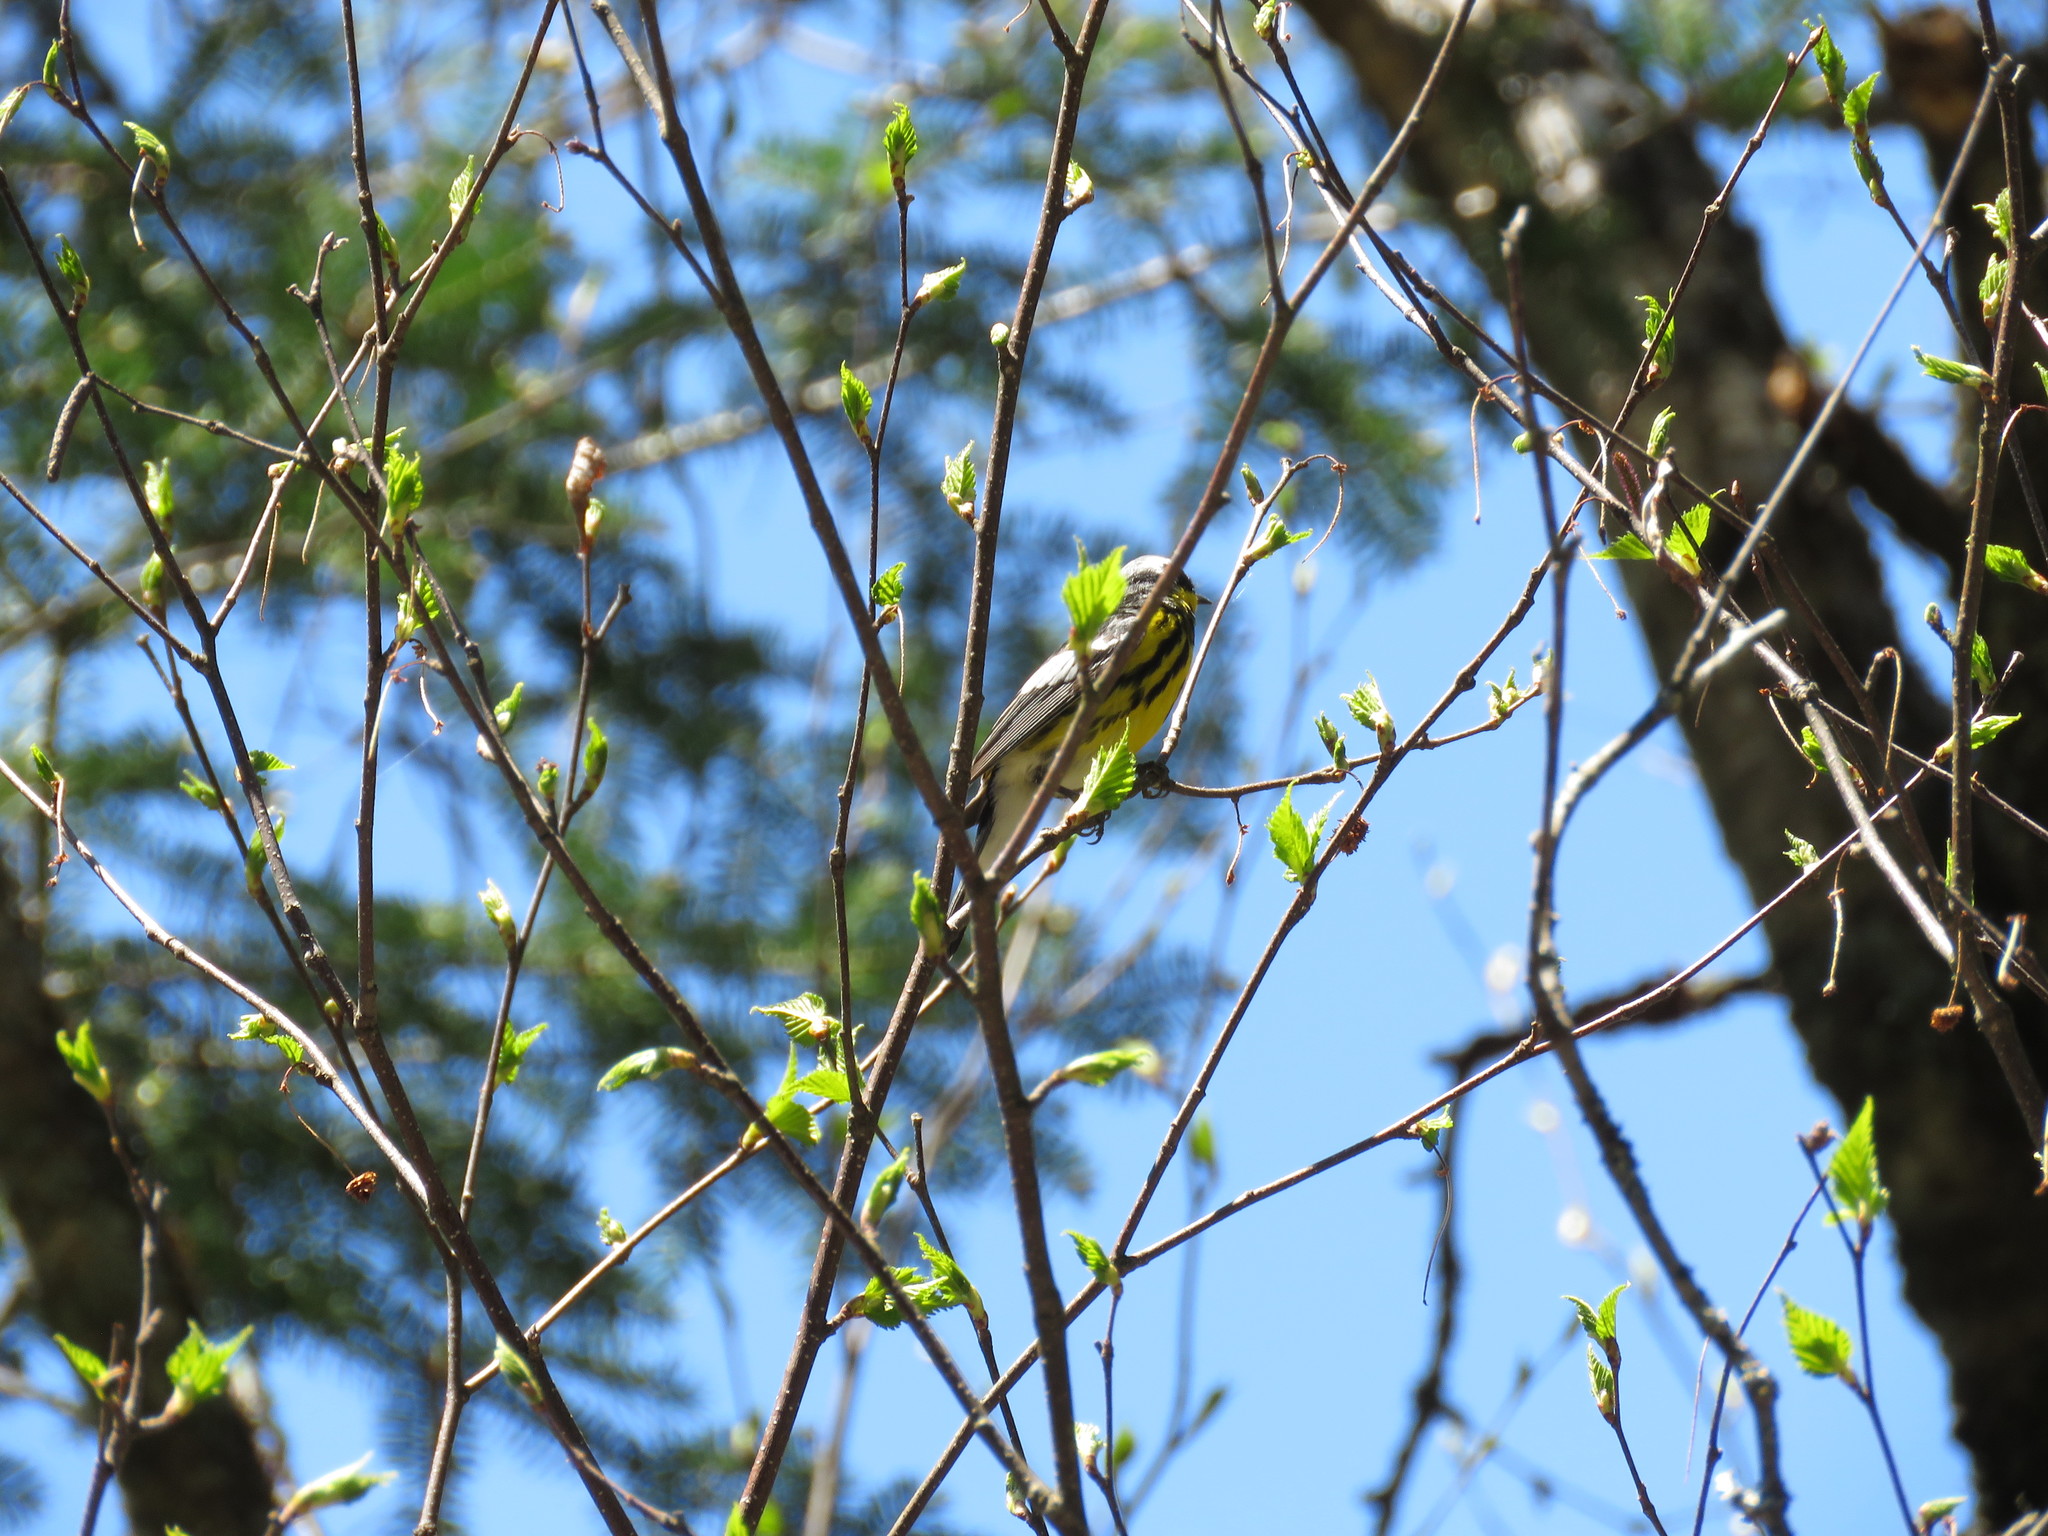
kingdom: Animalia
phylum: Chordata
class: Aves
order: Passeriformes
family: Parulidae
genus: Setophaga
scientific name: Setophaga magnolia
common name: Magnolia warbler
